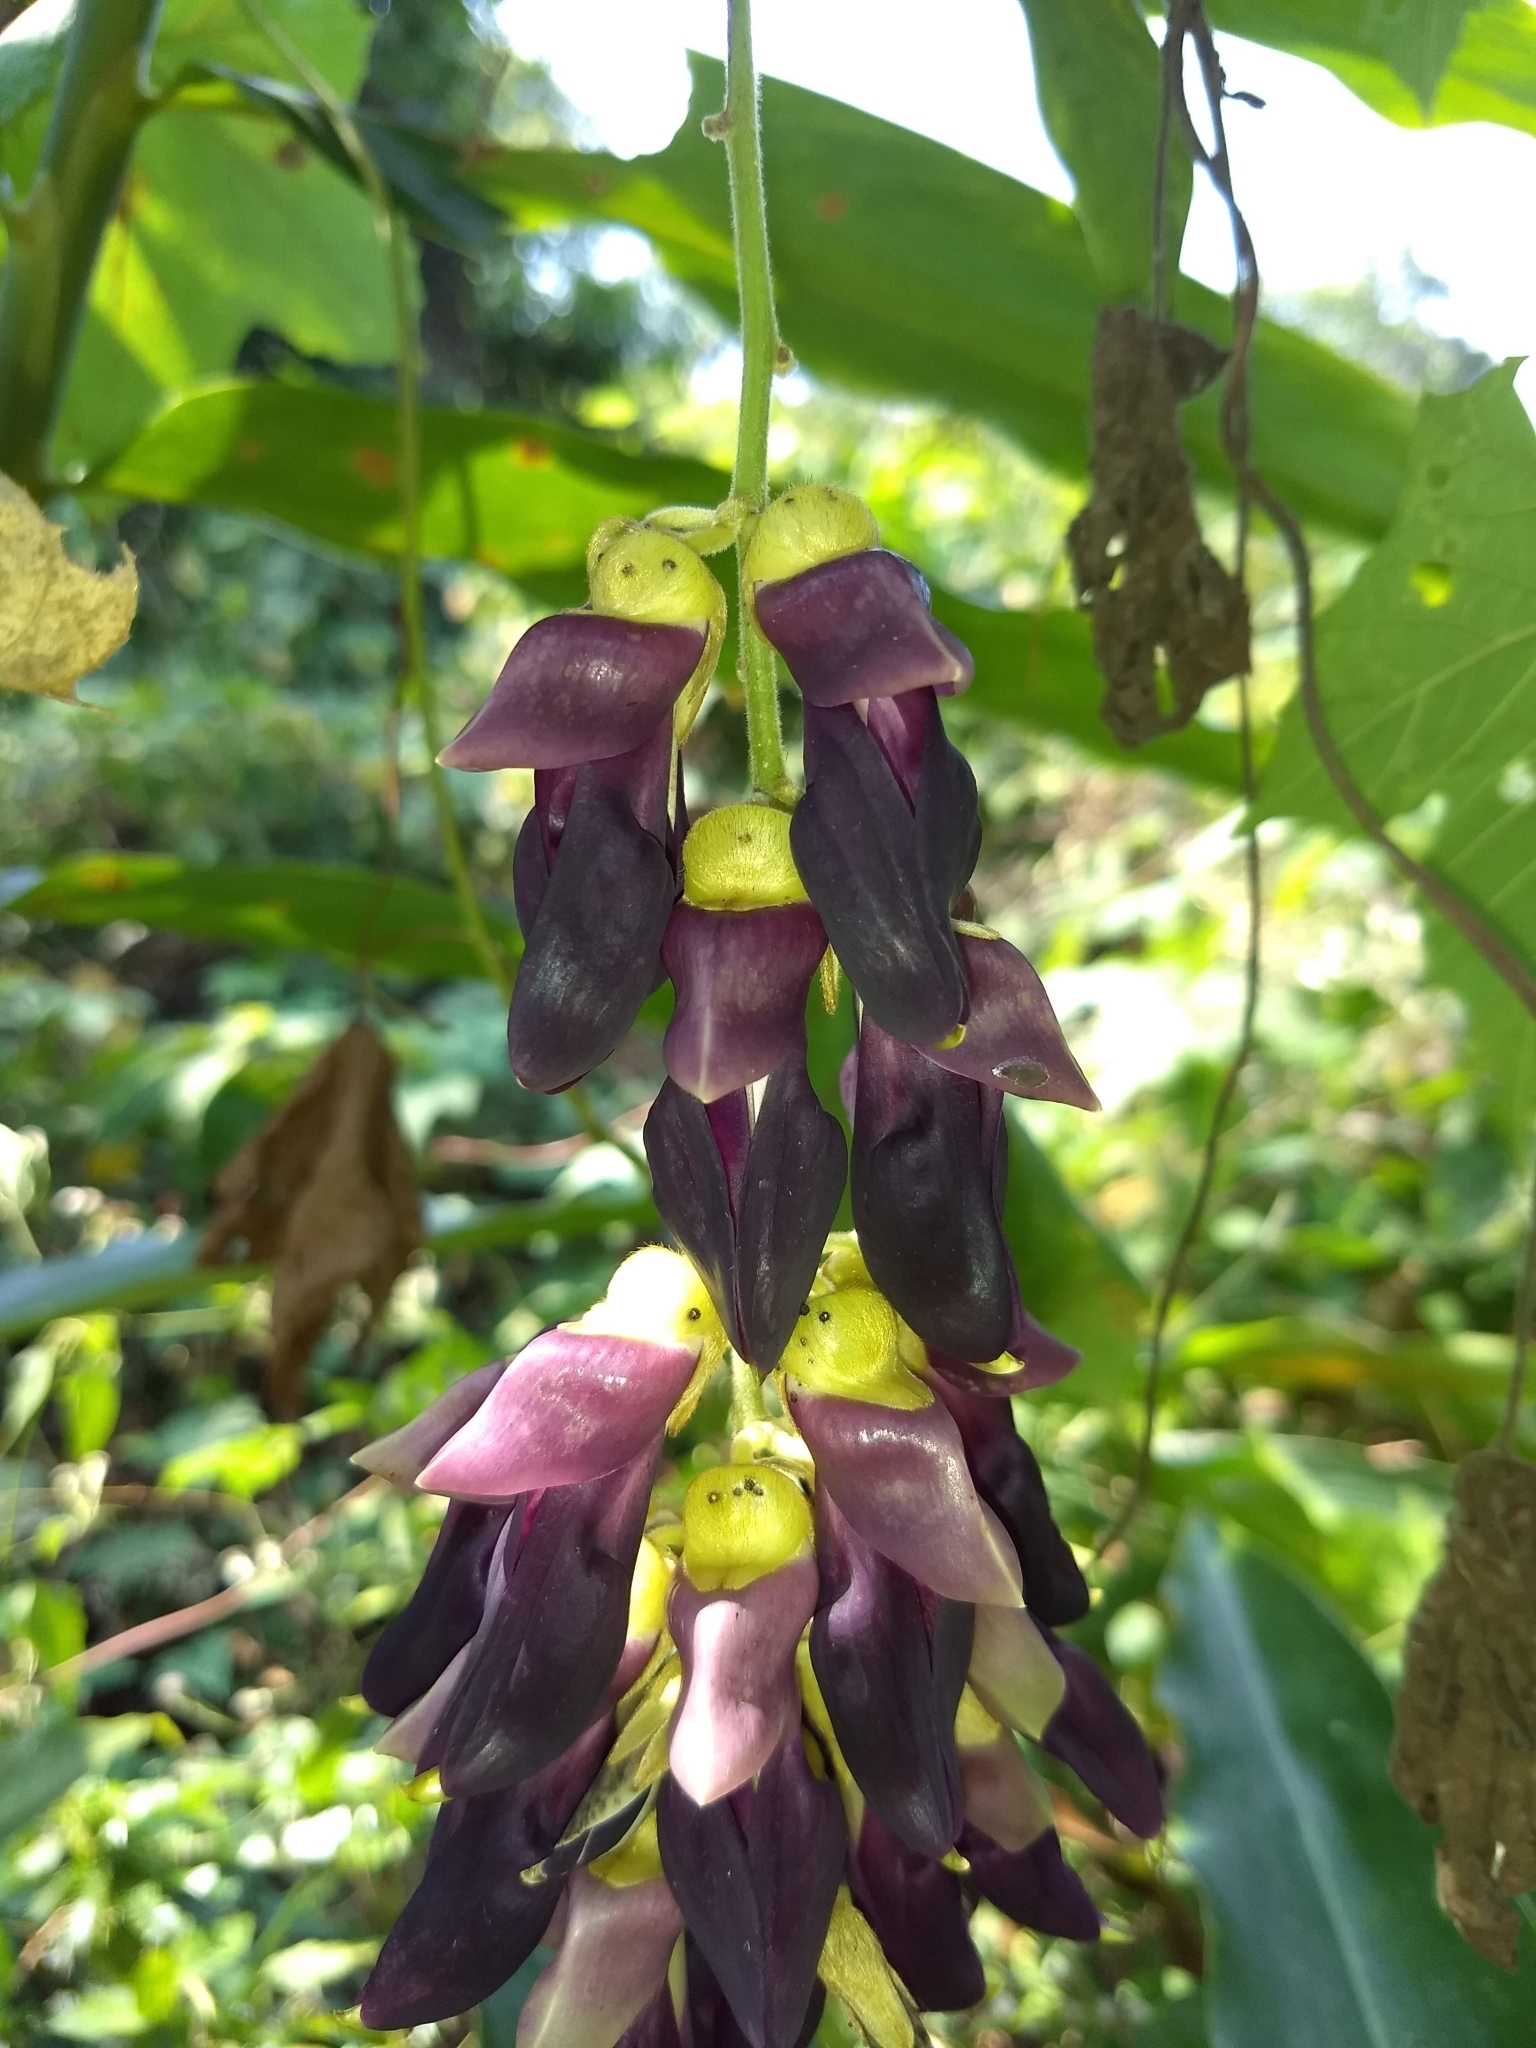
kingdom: Plantae
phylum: Tracheophyta
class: Magnoliopsida
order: Fabales
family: Fabaceae
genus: Mucuna
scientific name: Mucuna pruriens
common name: Cow-itch
